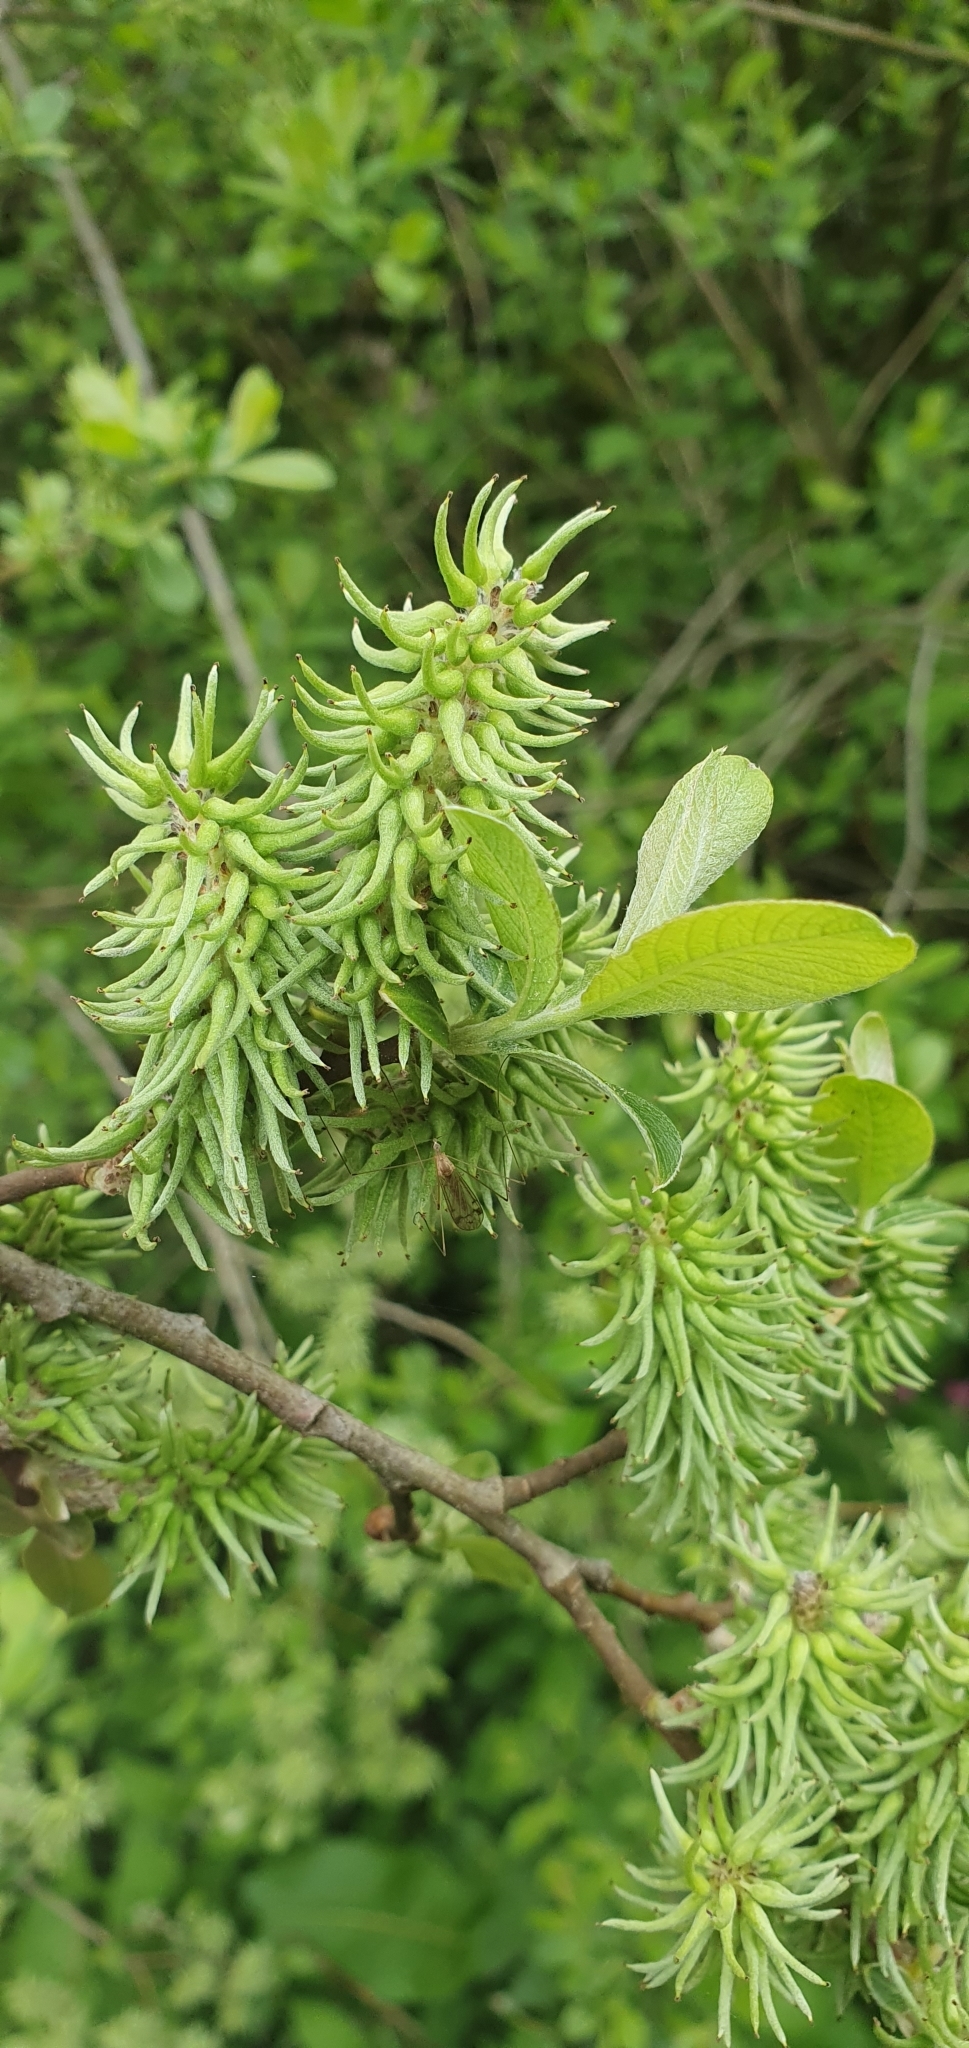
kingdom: Plantae
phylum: Tracheophyta
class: Magnoliopsida
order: Malpighiales
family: Salicaceae
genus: Salix
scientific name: Salix cinerea
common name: Common sallow
